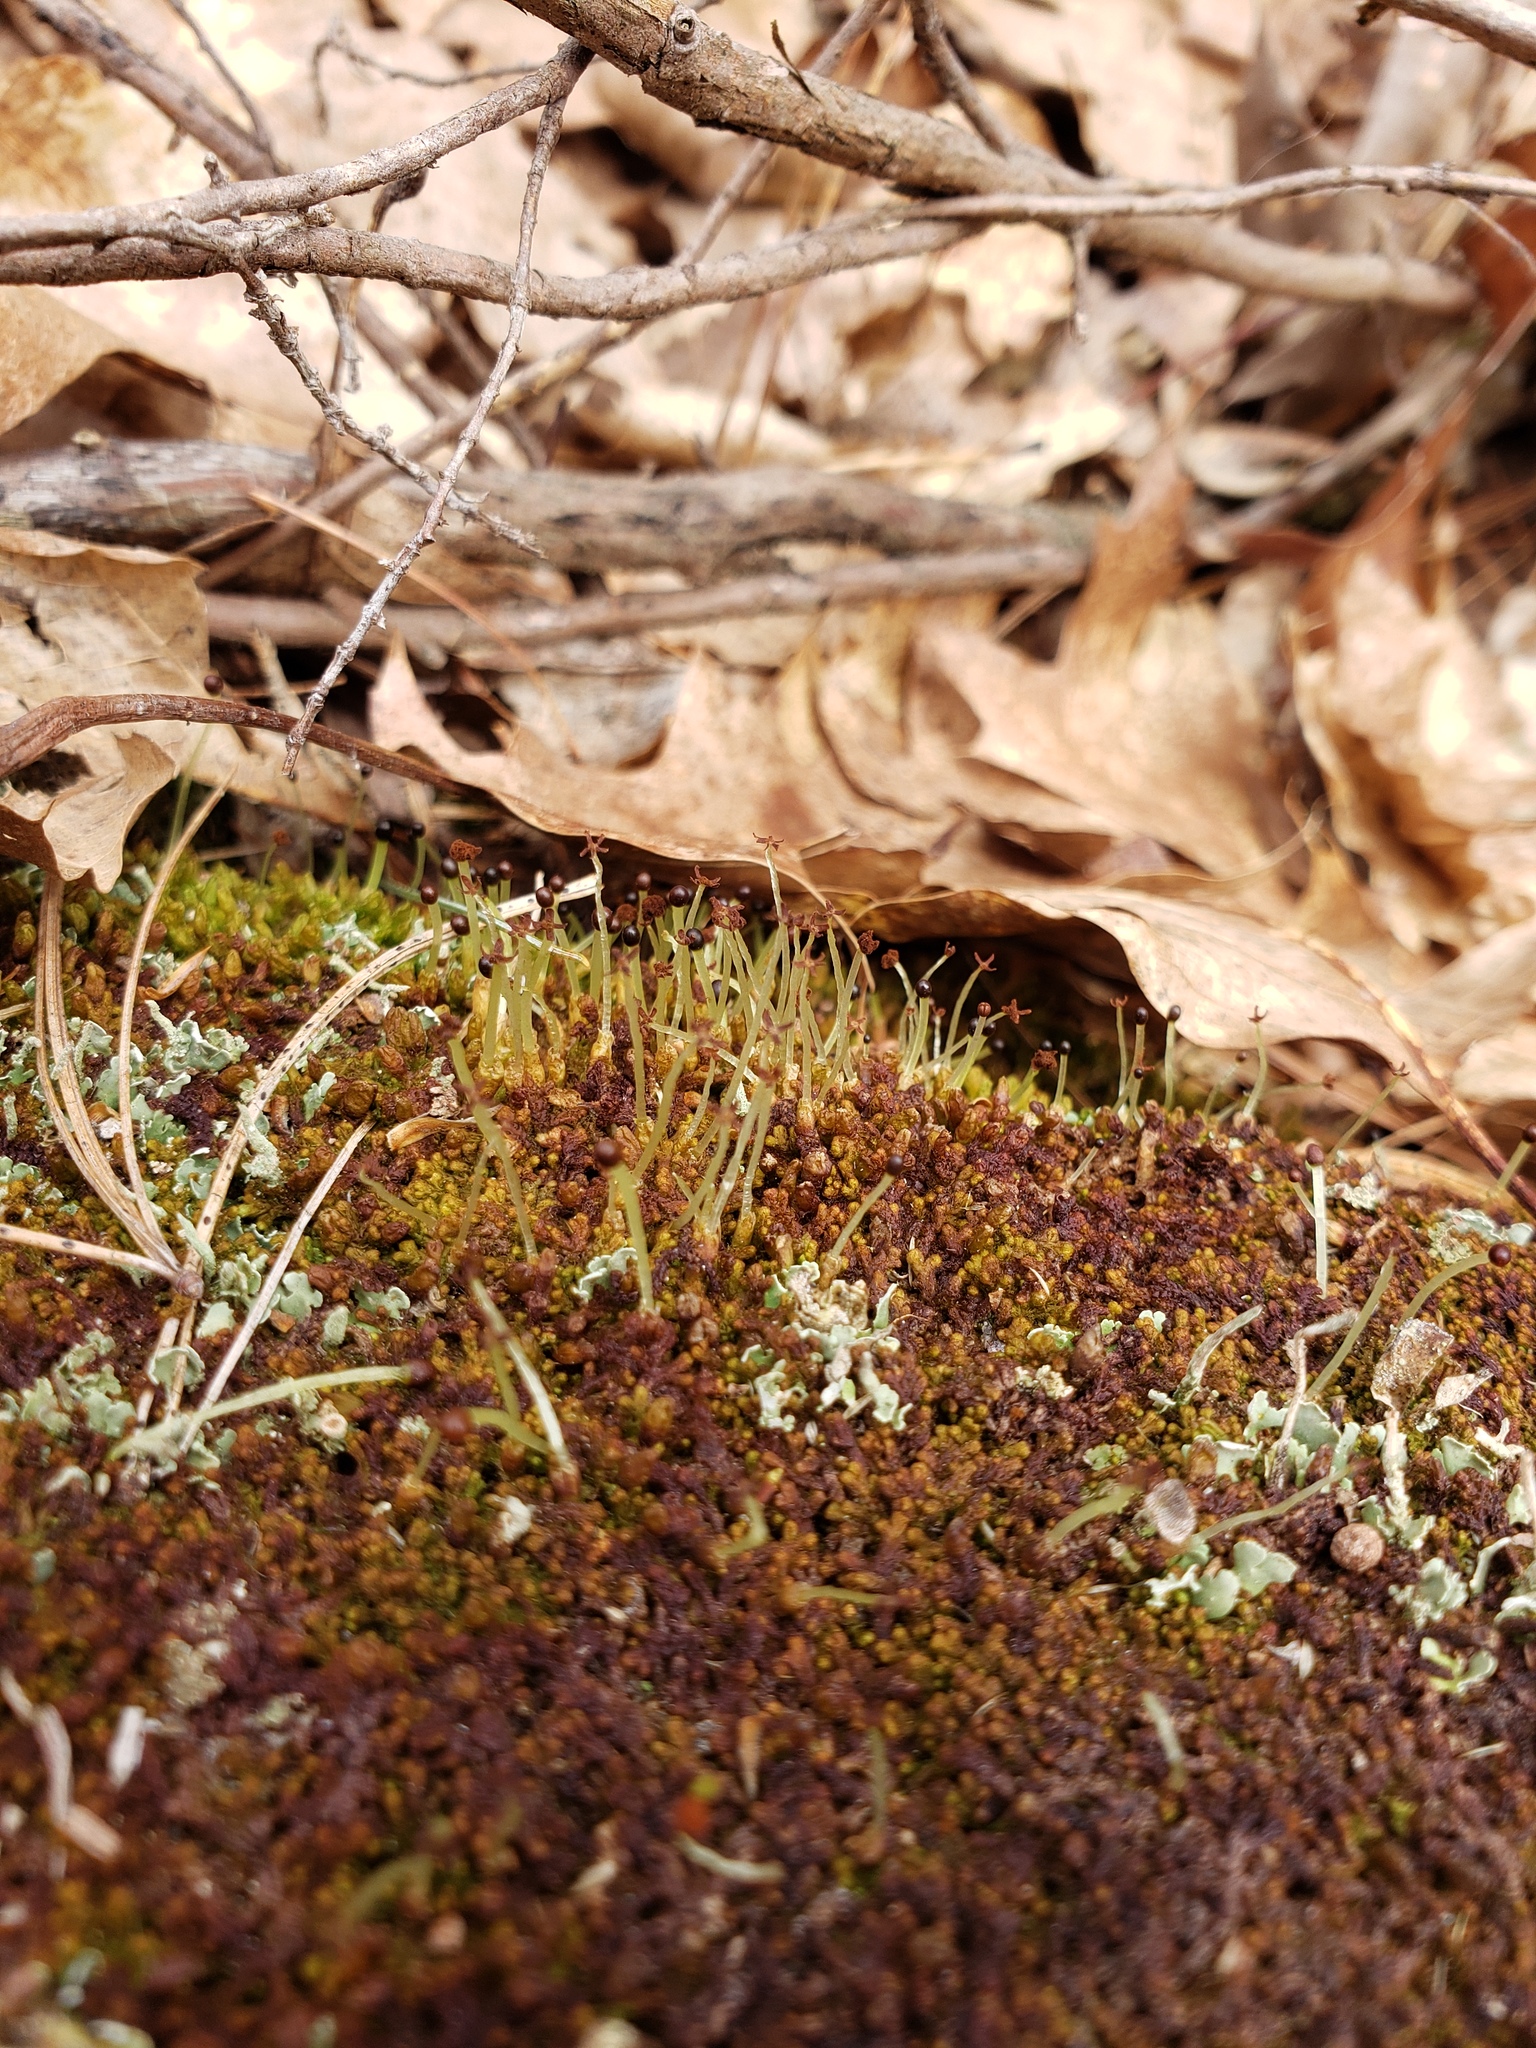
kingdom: Plantae
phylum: Marchantiophyta
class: Jungermanniopsida
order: Ptilidiales
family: Ptilidiaceae
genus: Ptilidium
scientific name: Ptilidium pulcherrimum
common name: Tree fringewort
